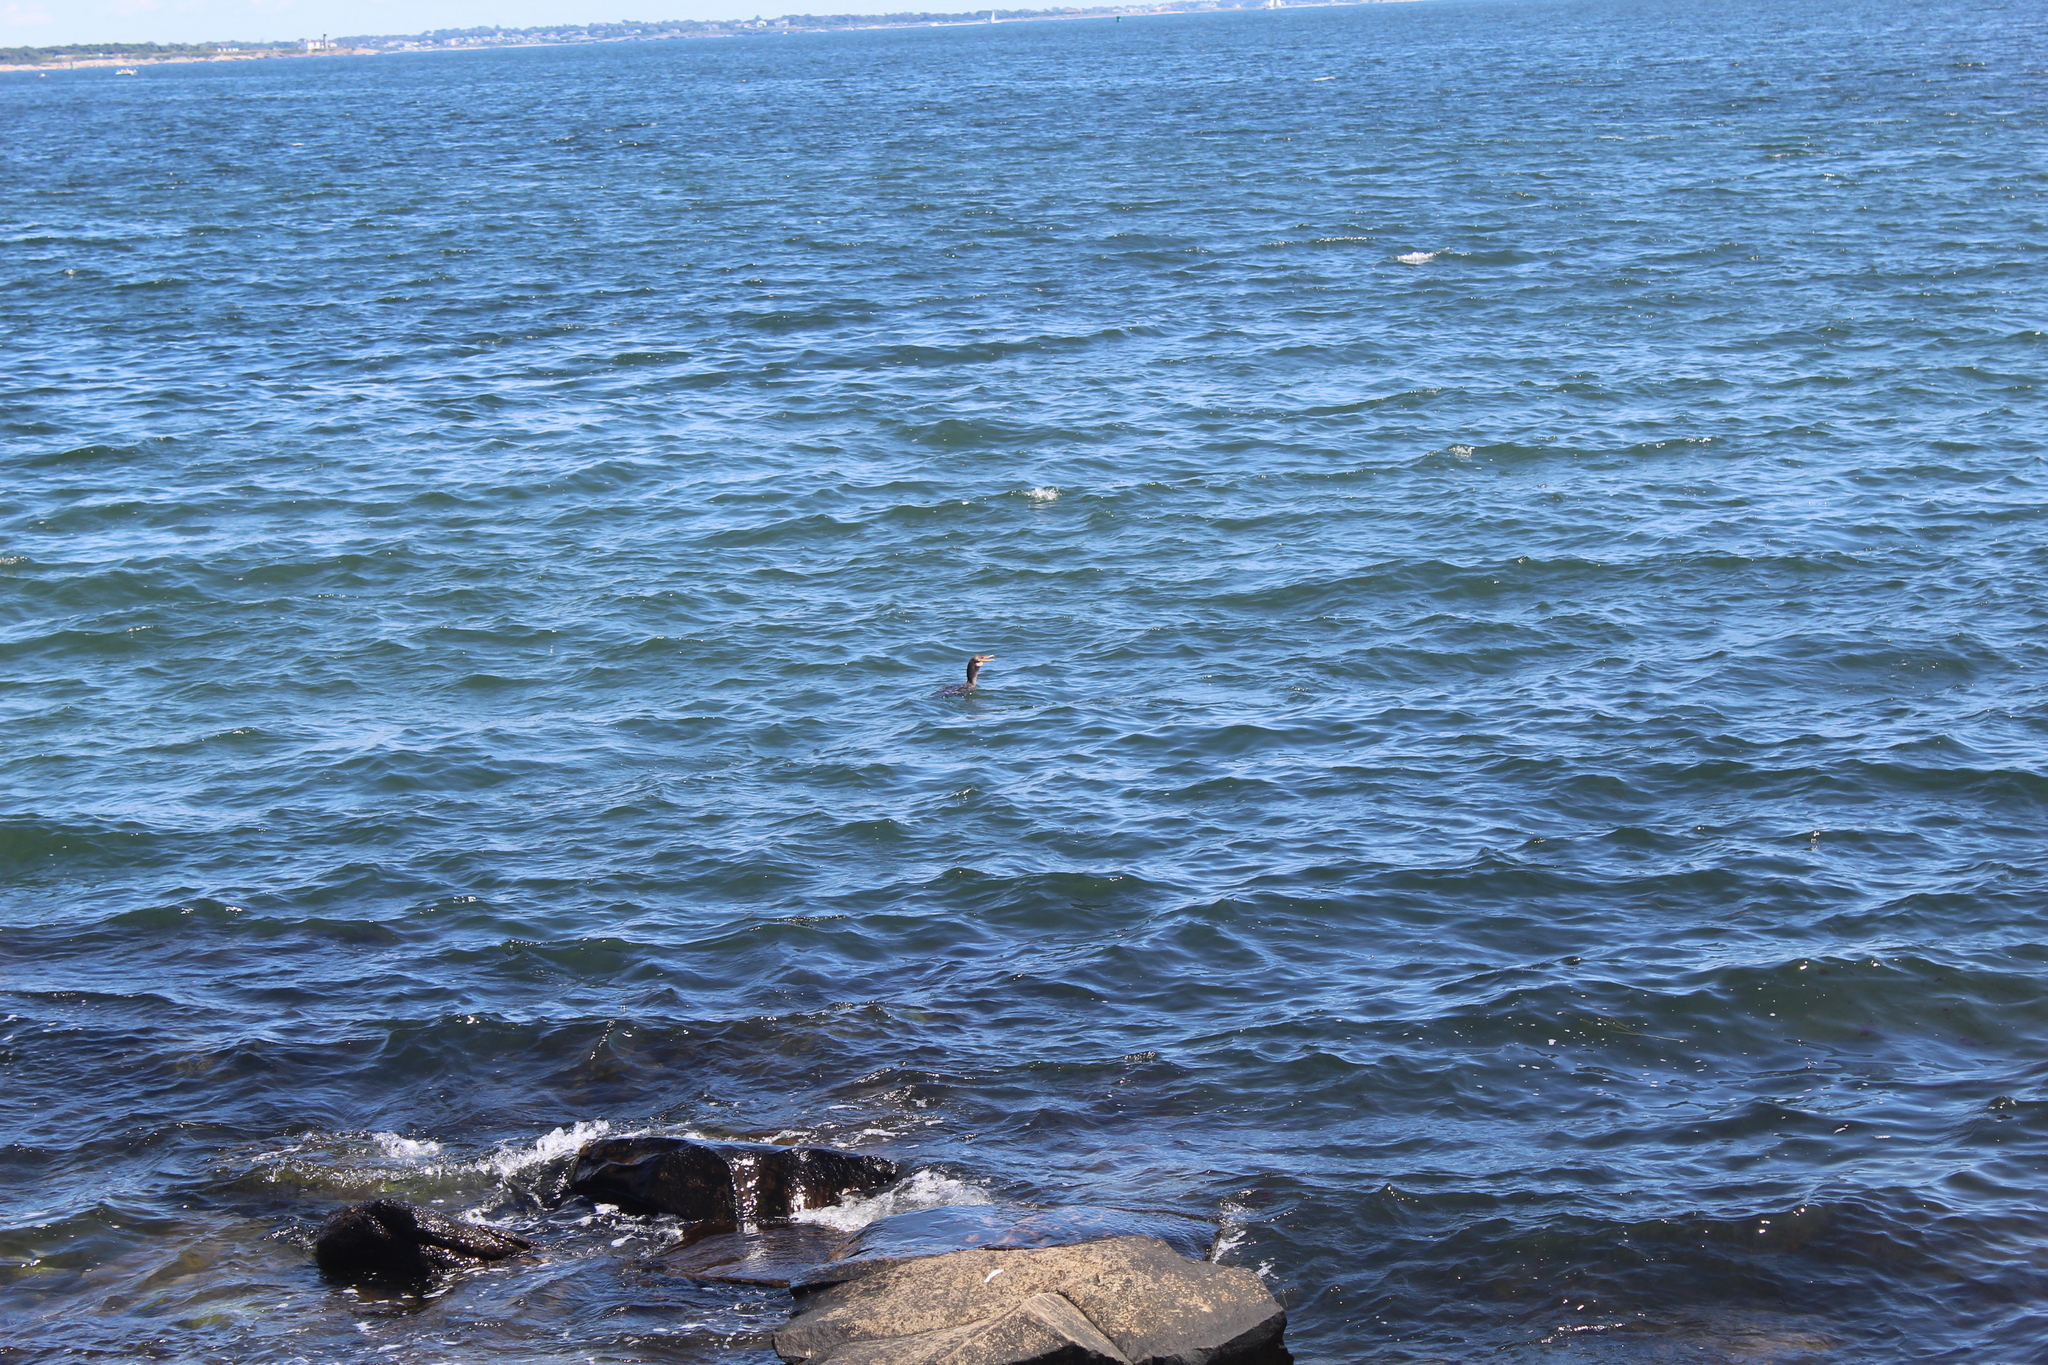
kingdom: Animalia
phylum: Chordata
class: Aves
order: Suliformes
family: Phalacrocoracidae
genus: Phalacrocorax
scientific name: Phalacrocorax auritus
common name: Double-crested cormorant
